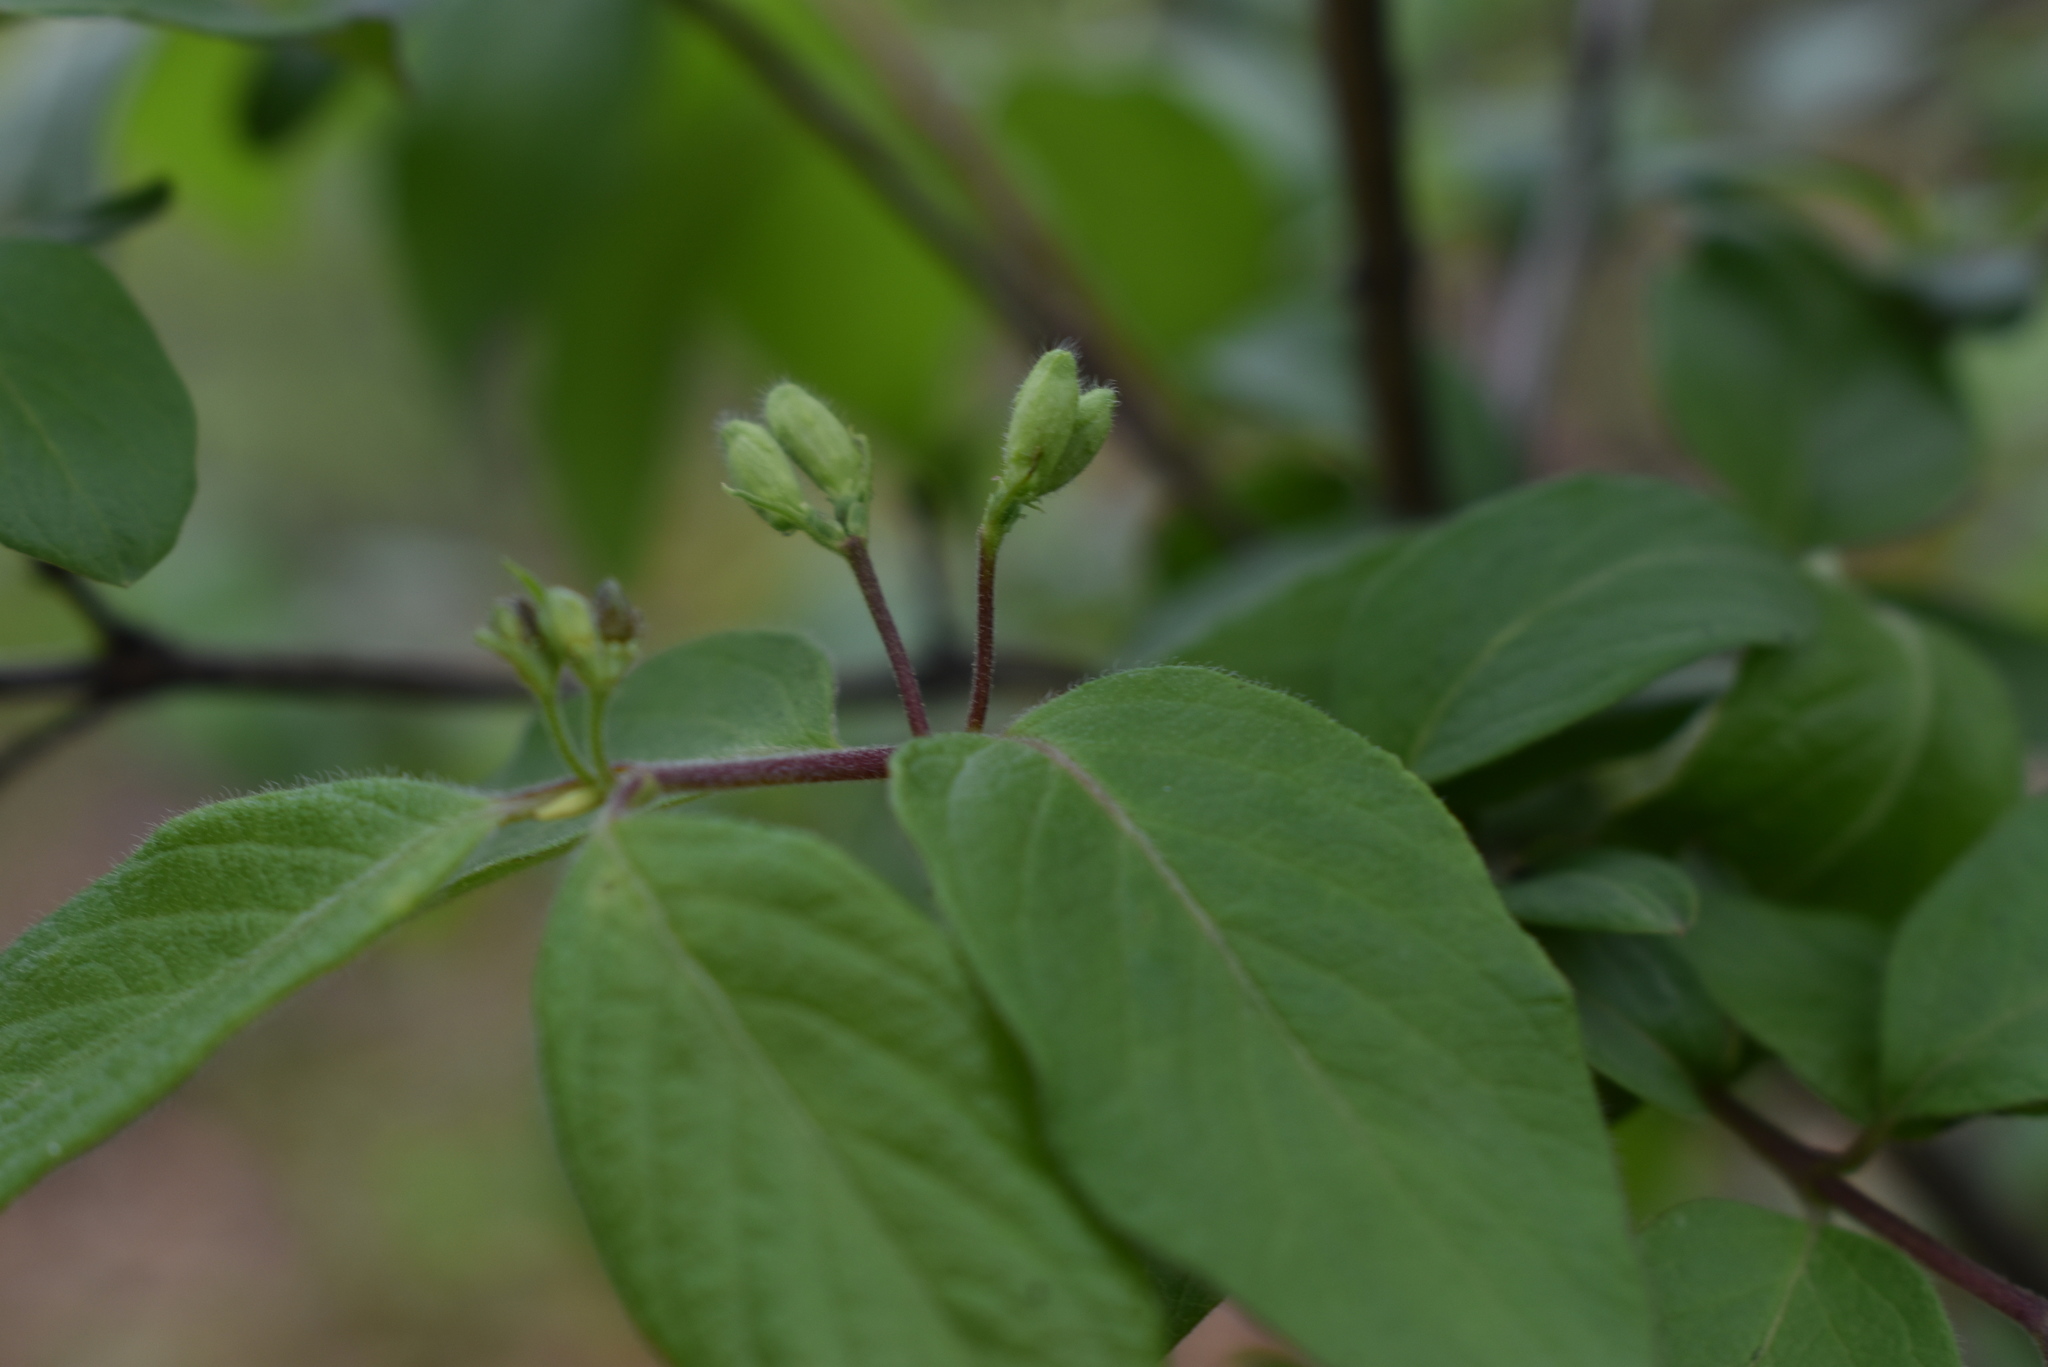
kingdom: Plantae
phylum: Tracheophyta
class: Magnoliopsida
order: Dipsacales
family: Caprifoliaceae
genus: Lonicera
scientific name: Lonicera ruprechtiana
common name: Manchurian honeysuckle
